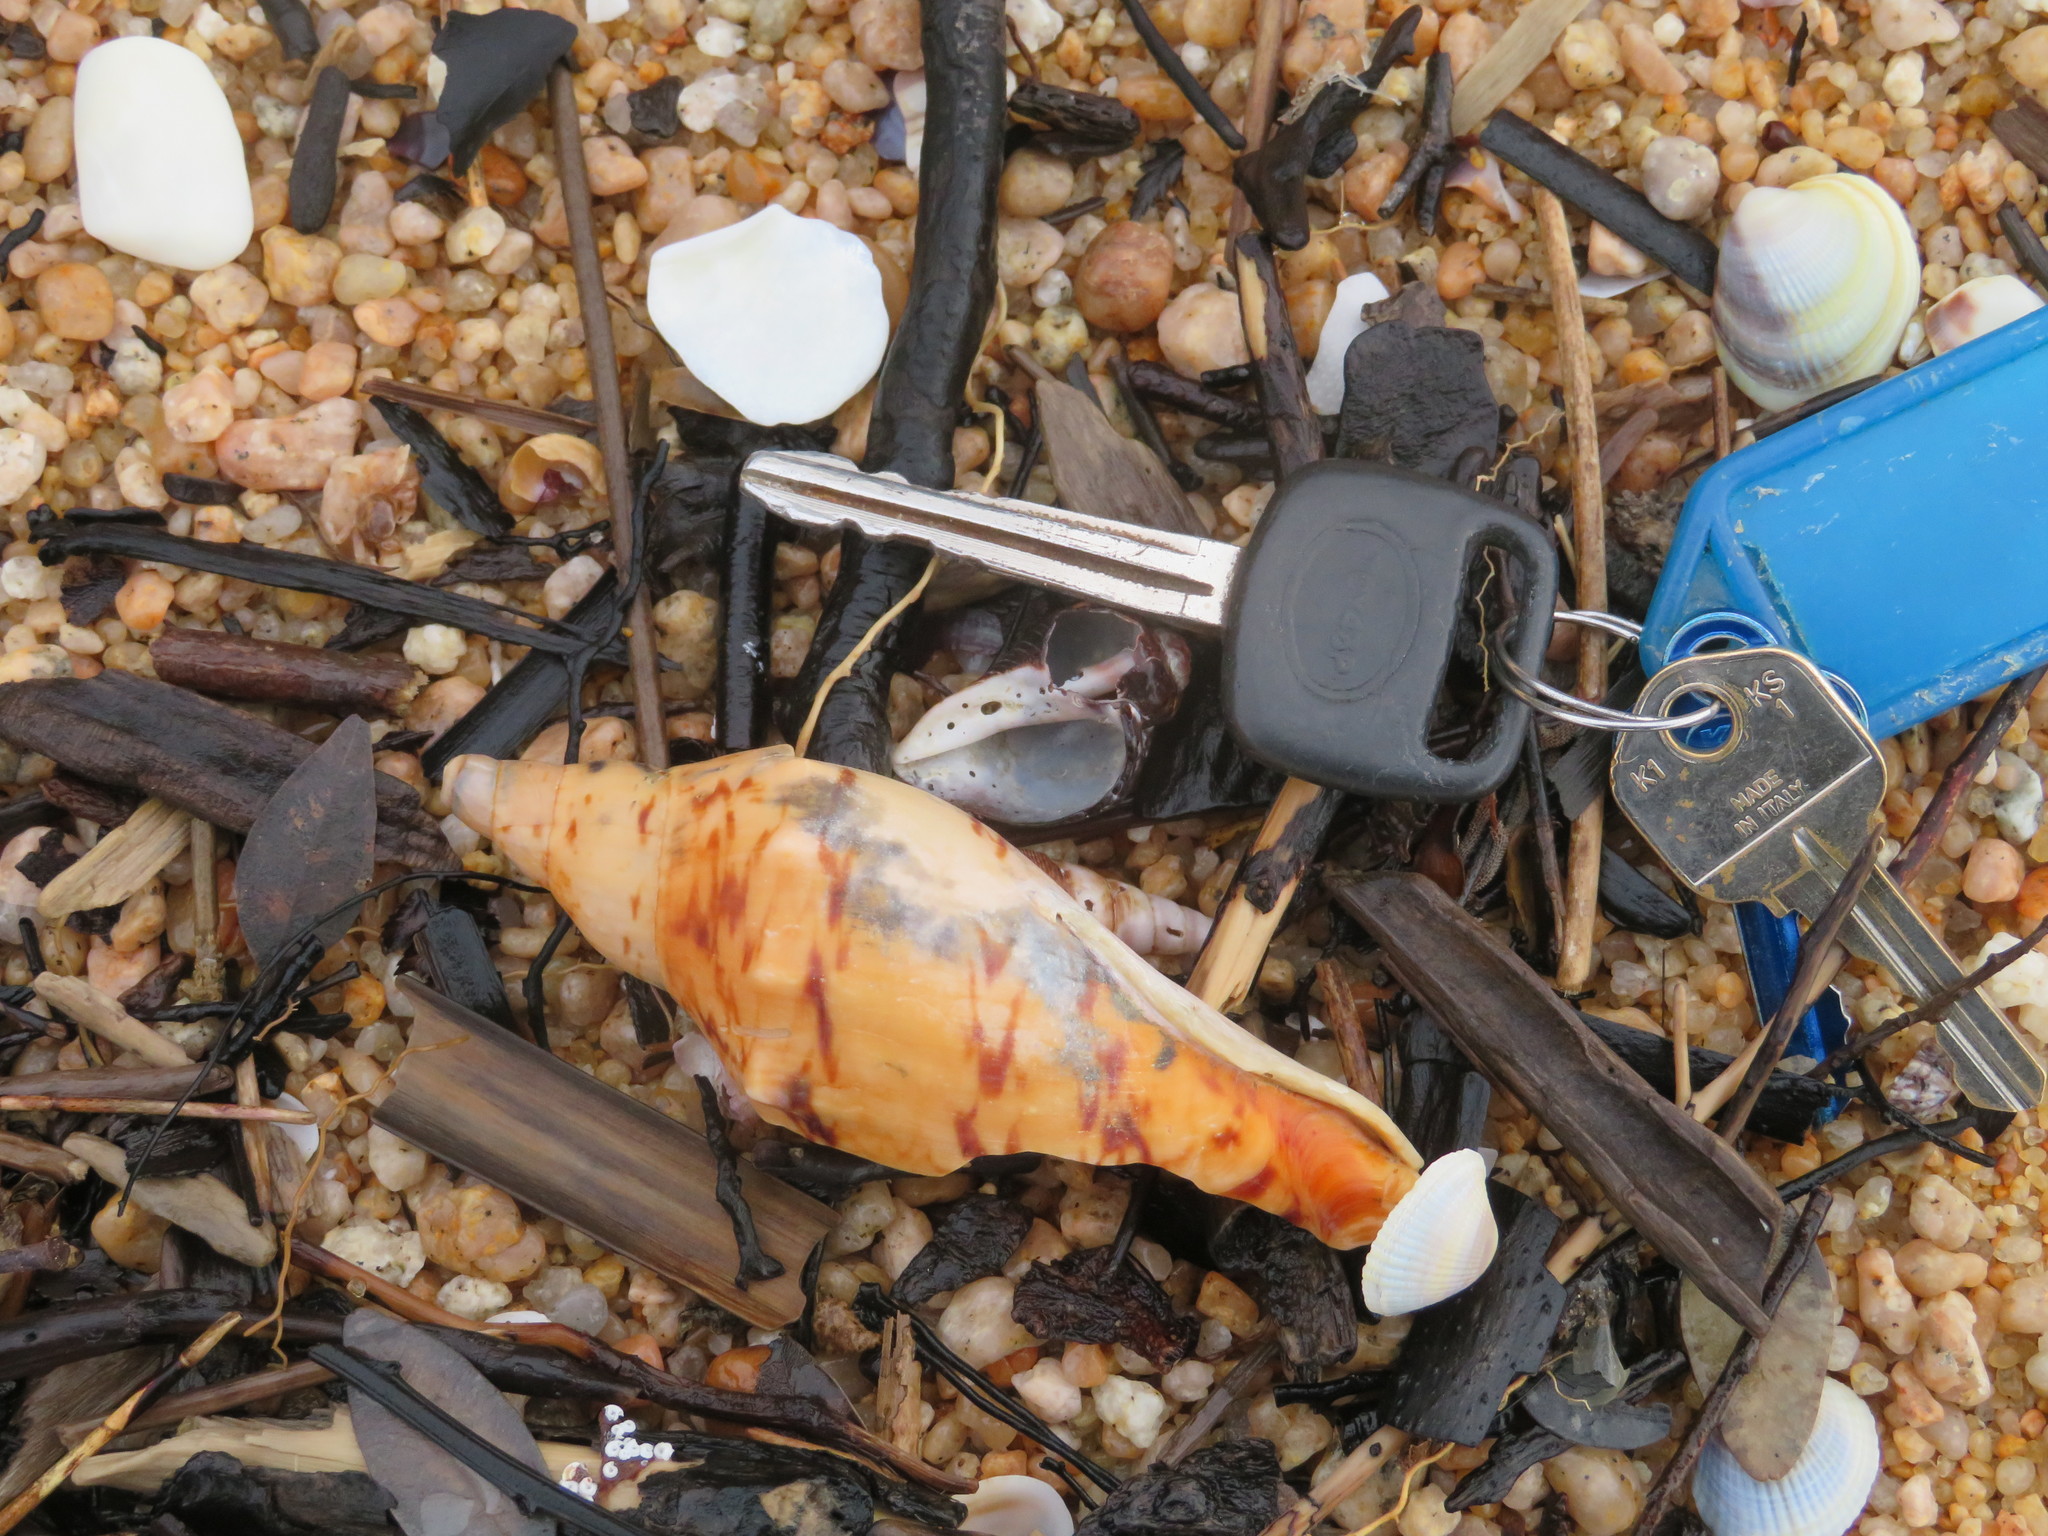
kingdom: Animalia
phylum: Mollusca
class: Gastropoda
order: Neogastropoda
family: Volutidae
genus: Alcithoe
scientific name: Alcithoe arabica
